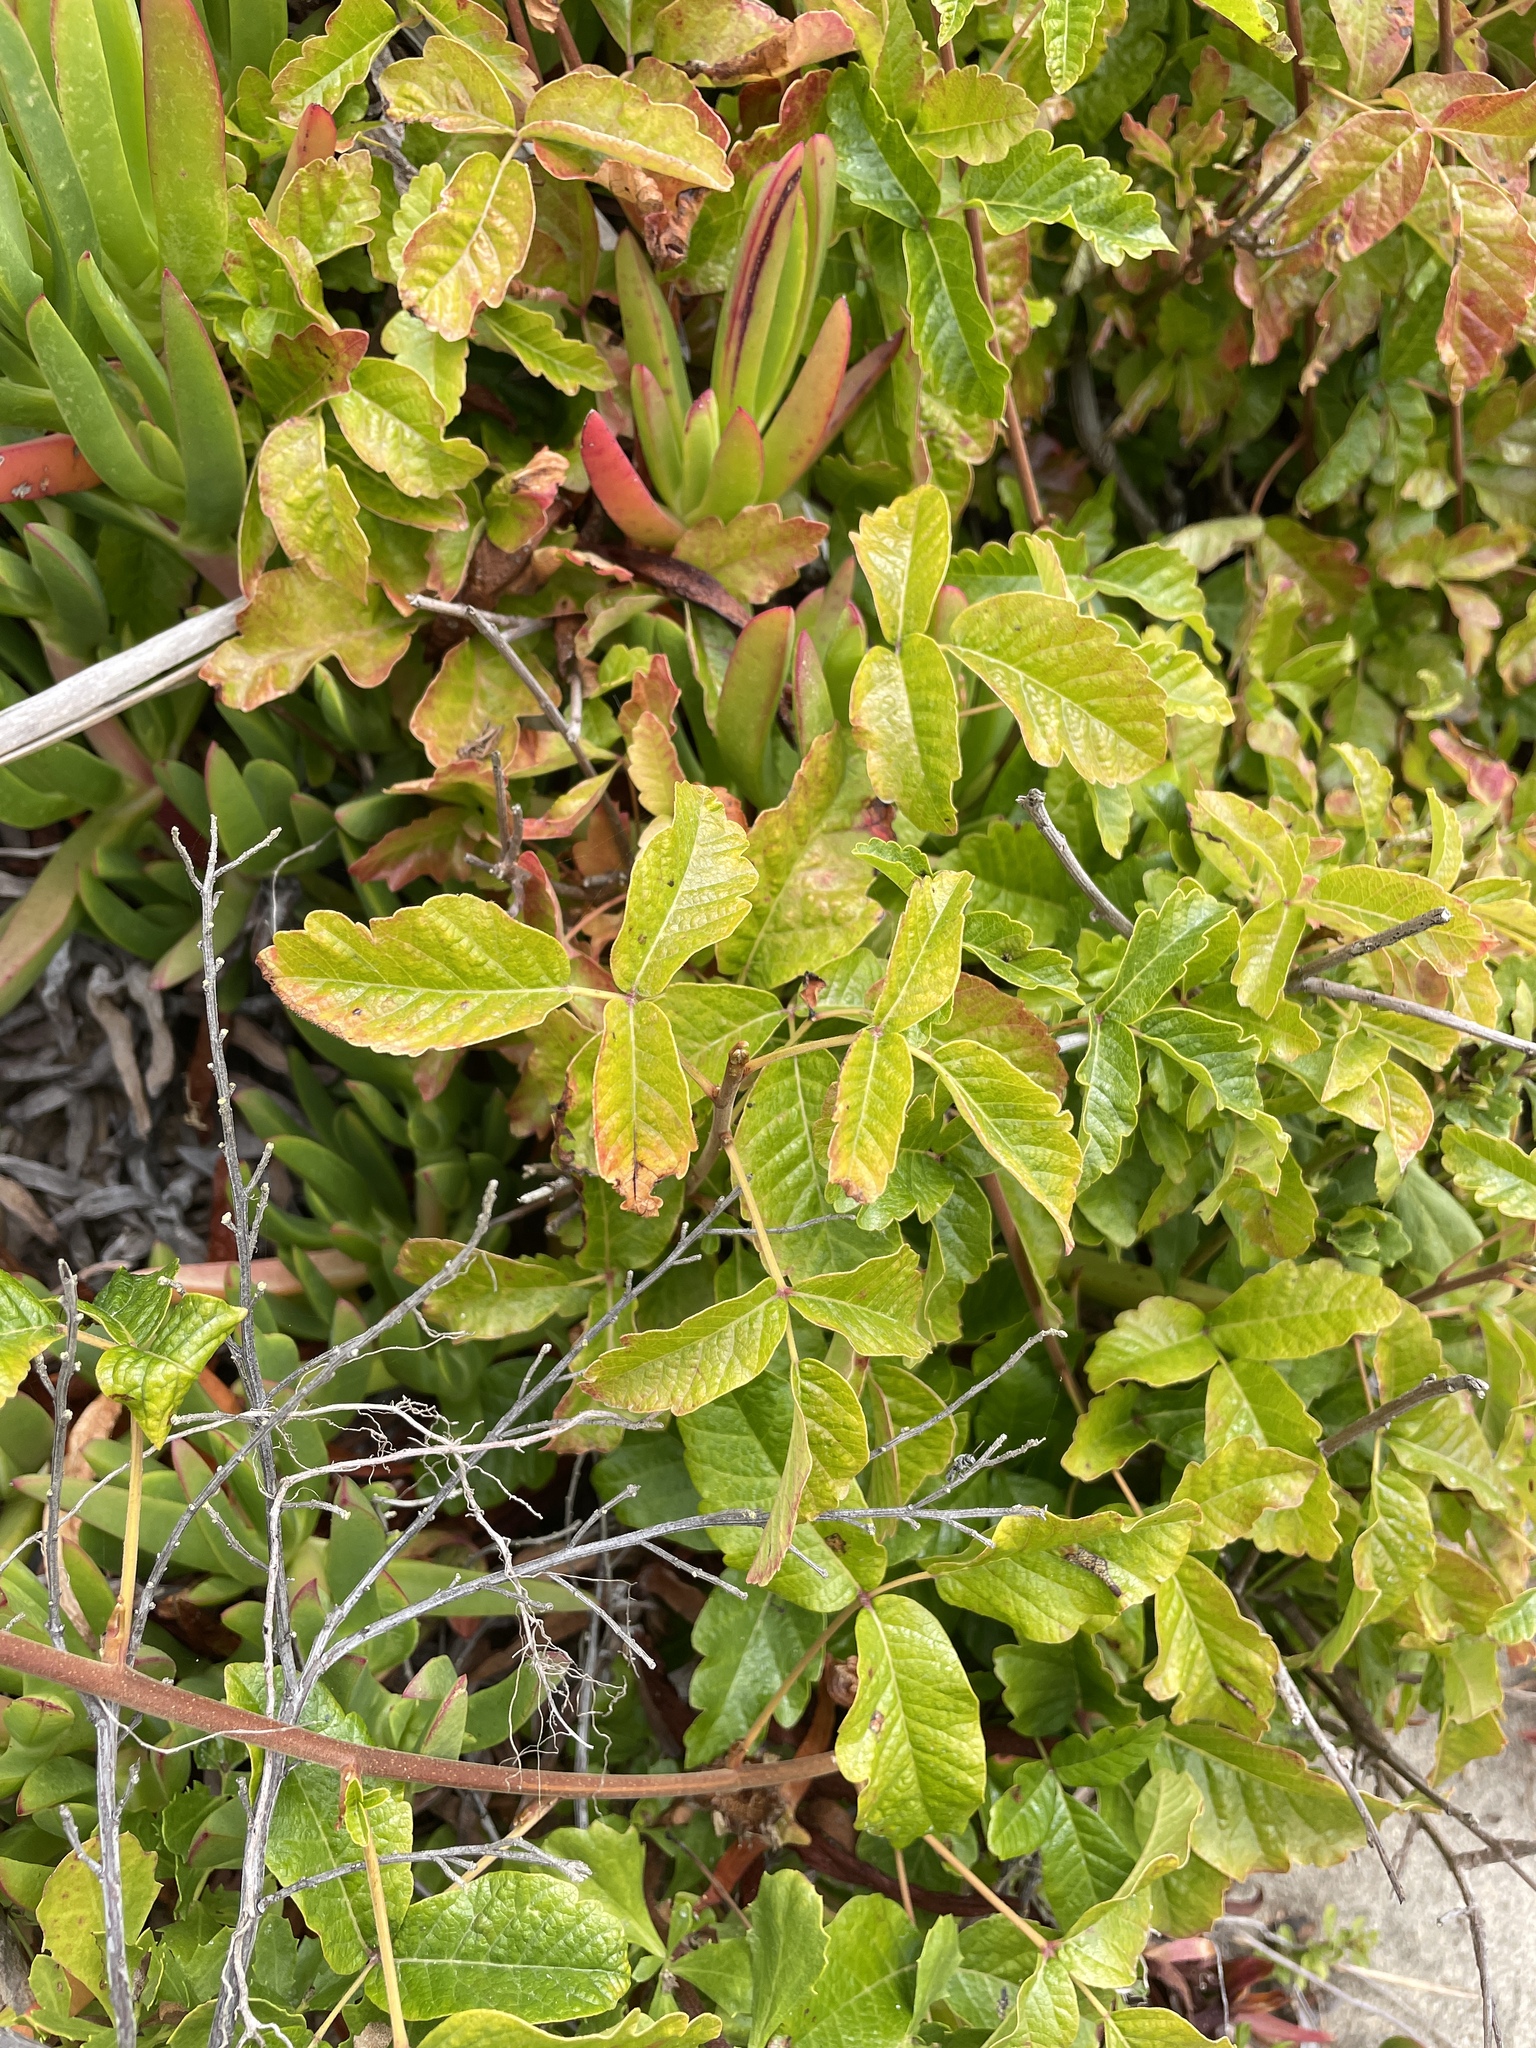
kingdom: Plantae
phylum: Tracheophyta
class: Magnoliopsida
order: Sapindales
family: Anacardiaceae
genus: Toxicodendron
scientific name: Toxicodendron diversilobum
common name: Pacific poison-oak
